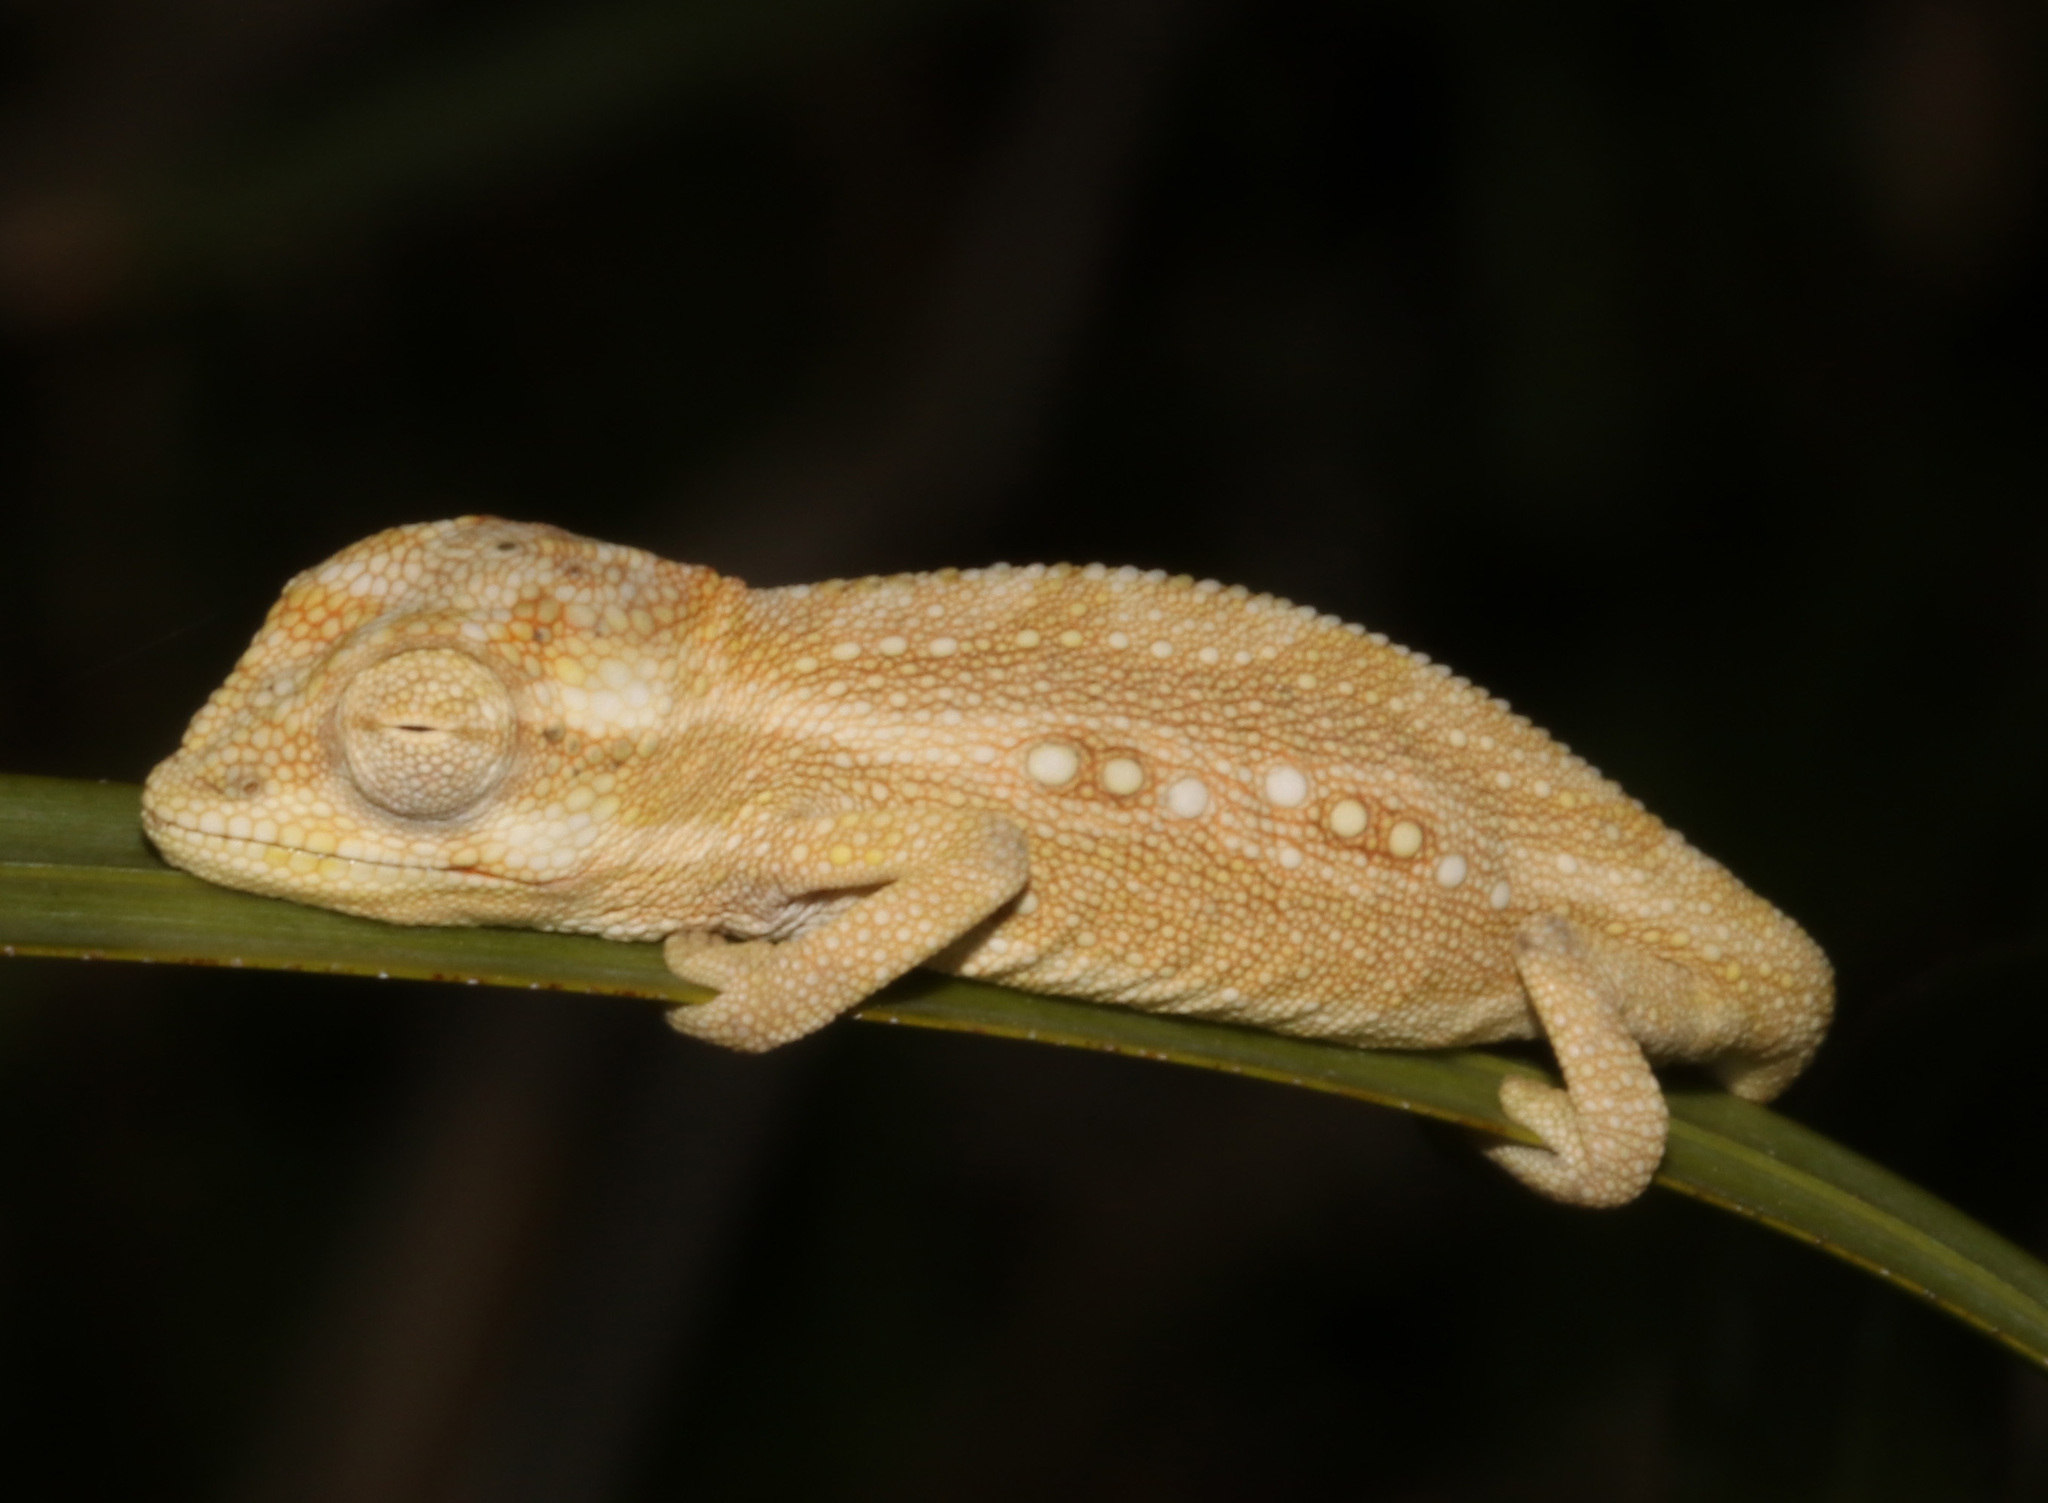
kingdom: Animalia
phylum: Chordata
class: Squamata
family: Chamaeleonidae
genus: Bradypodion
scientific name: Bradypodion pumilum
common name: Cape dwarf chameleon
